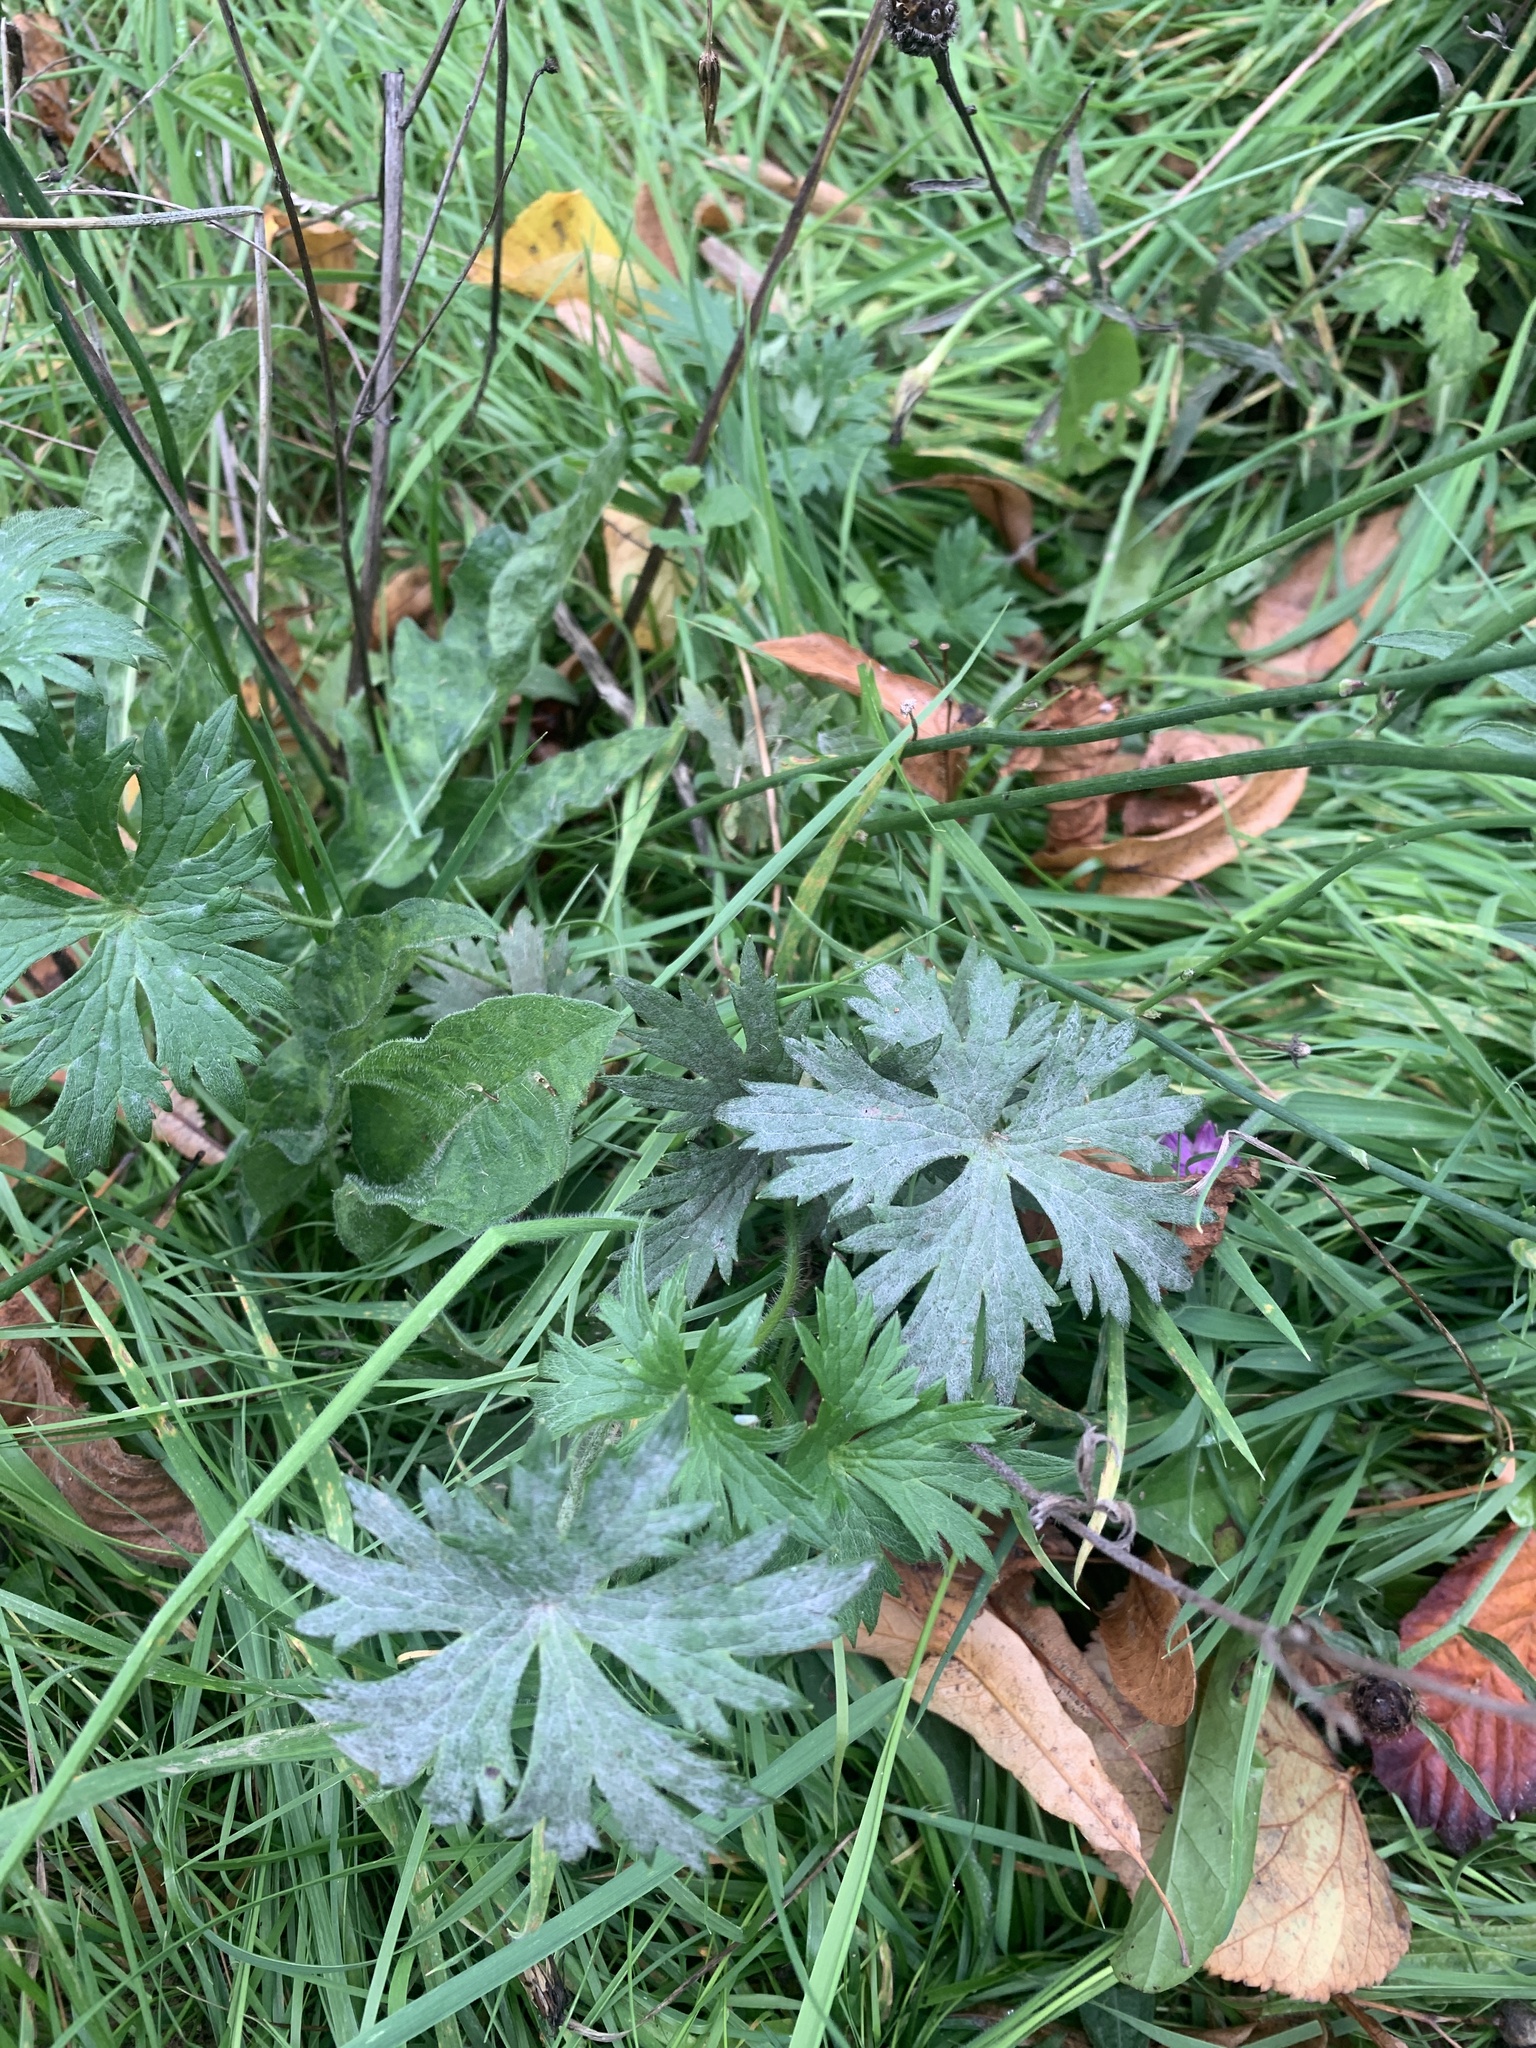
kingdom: Plantae
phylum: Tracheophyta
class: Magnoliopsida
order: Ranunculales
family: Ranunculaceae
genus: Ranunculus
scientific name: Ranunculus acris
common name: Meadow buttercup
